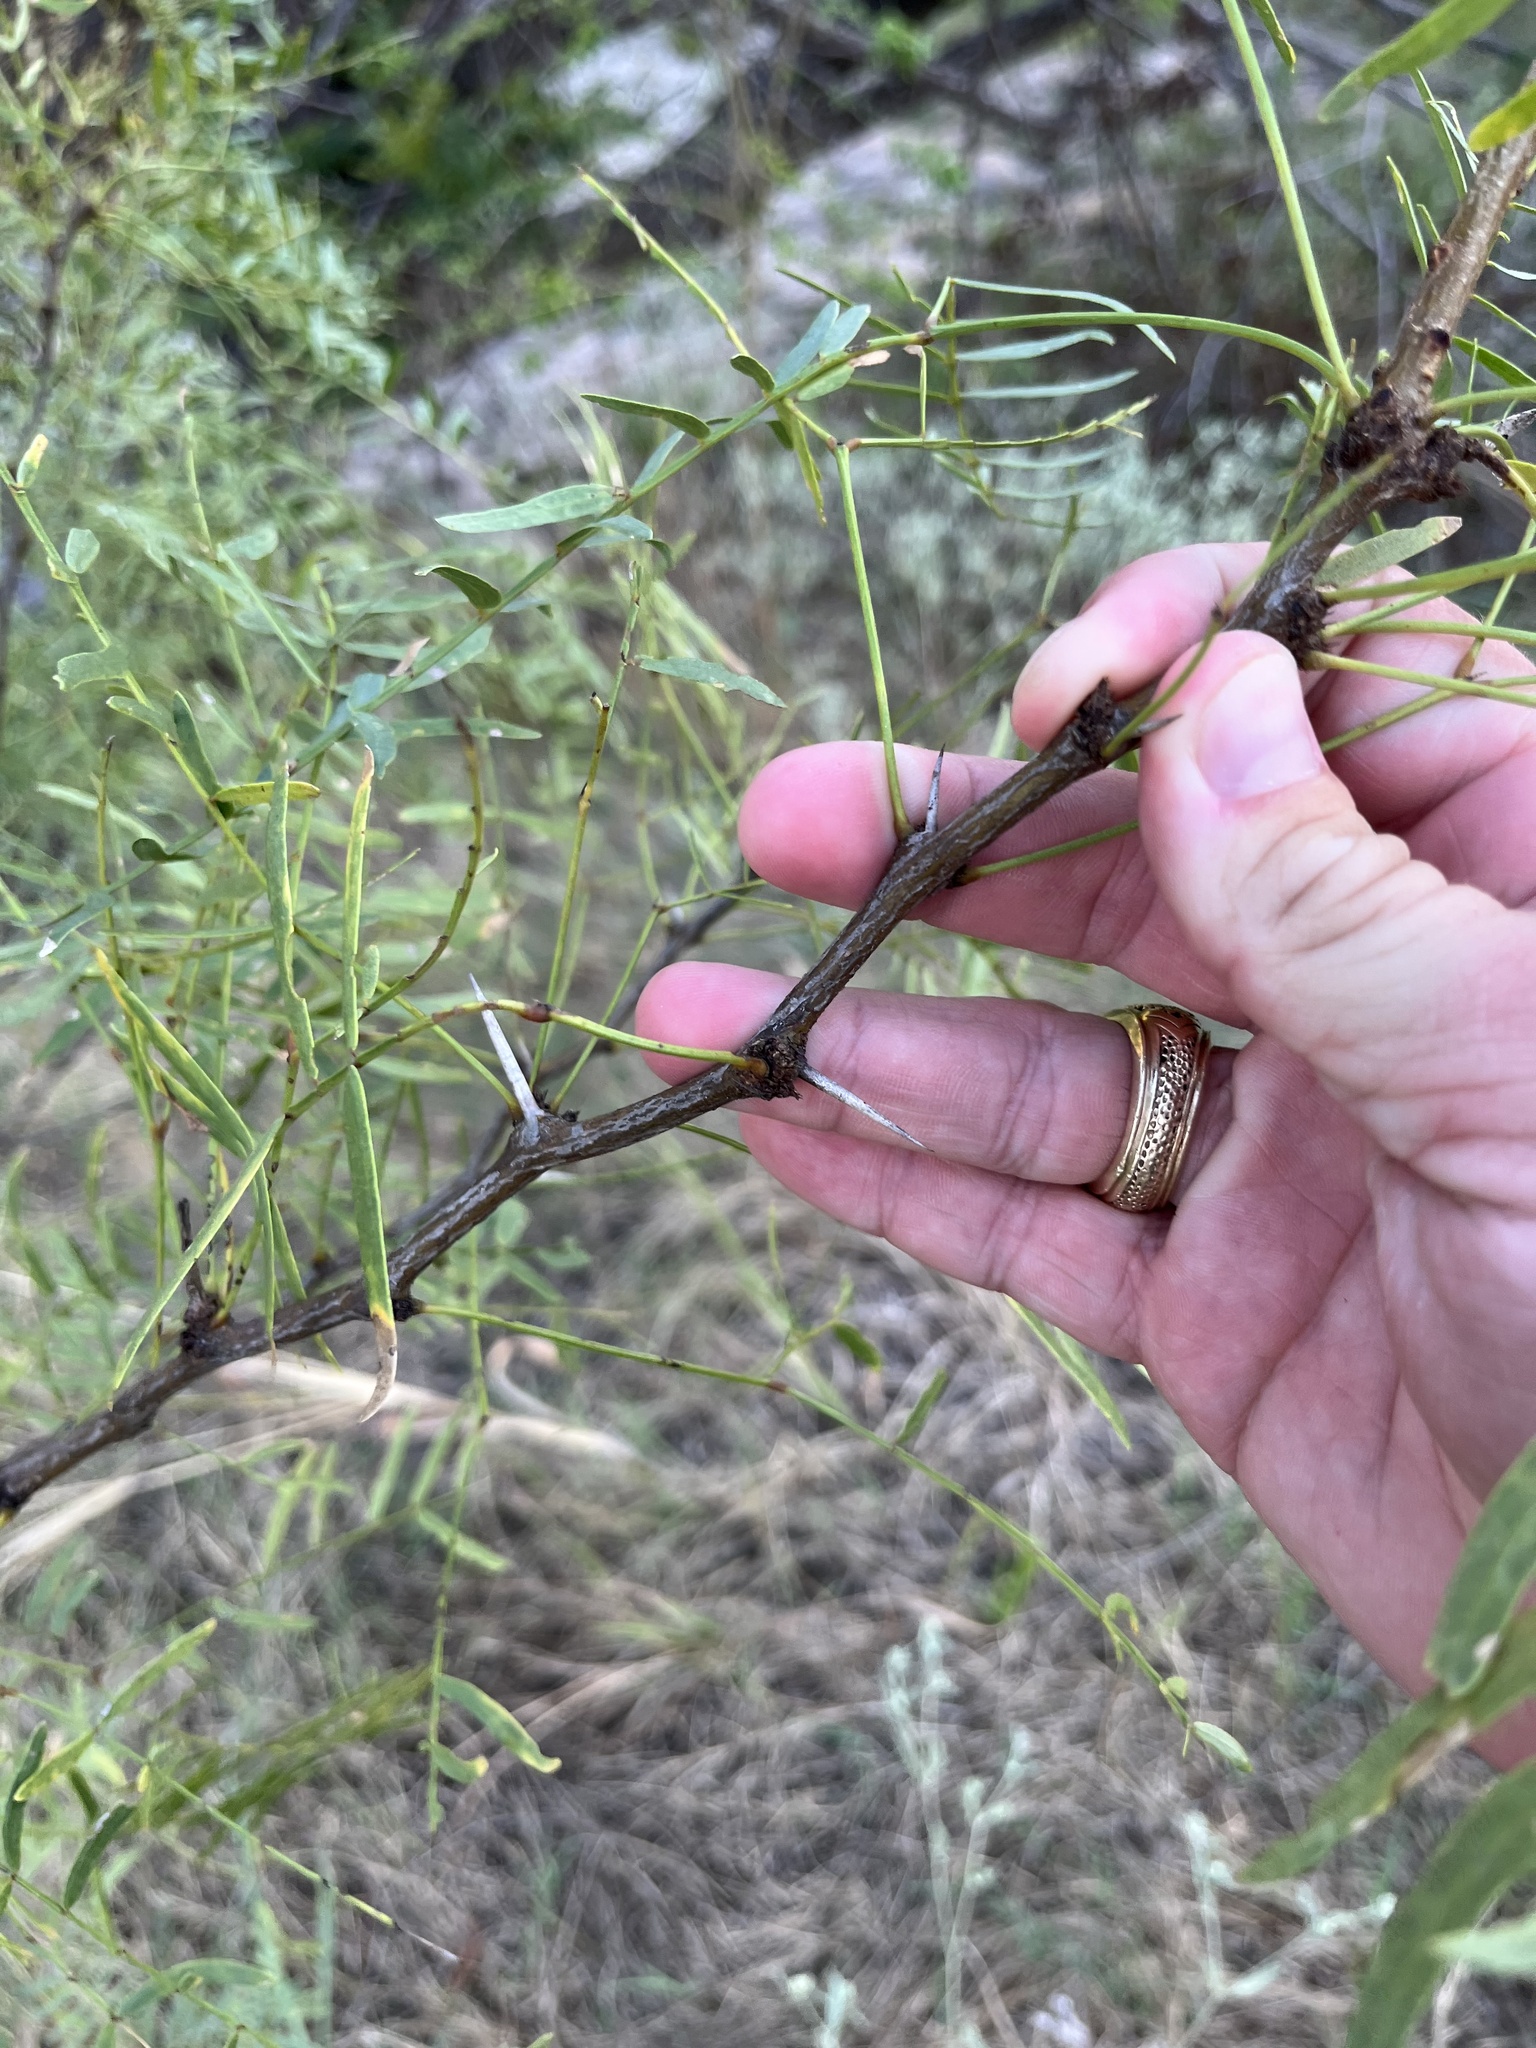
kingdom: Plantae
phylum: Tracheophyta
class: Magnoliopsida
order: Fabales
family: Fabaceae
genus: Prosopis
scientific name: Prosopis glandulosa
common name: Honey mesquite
